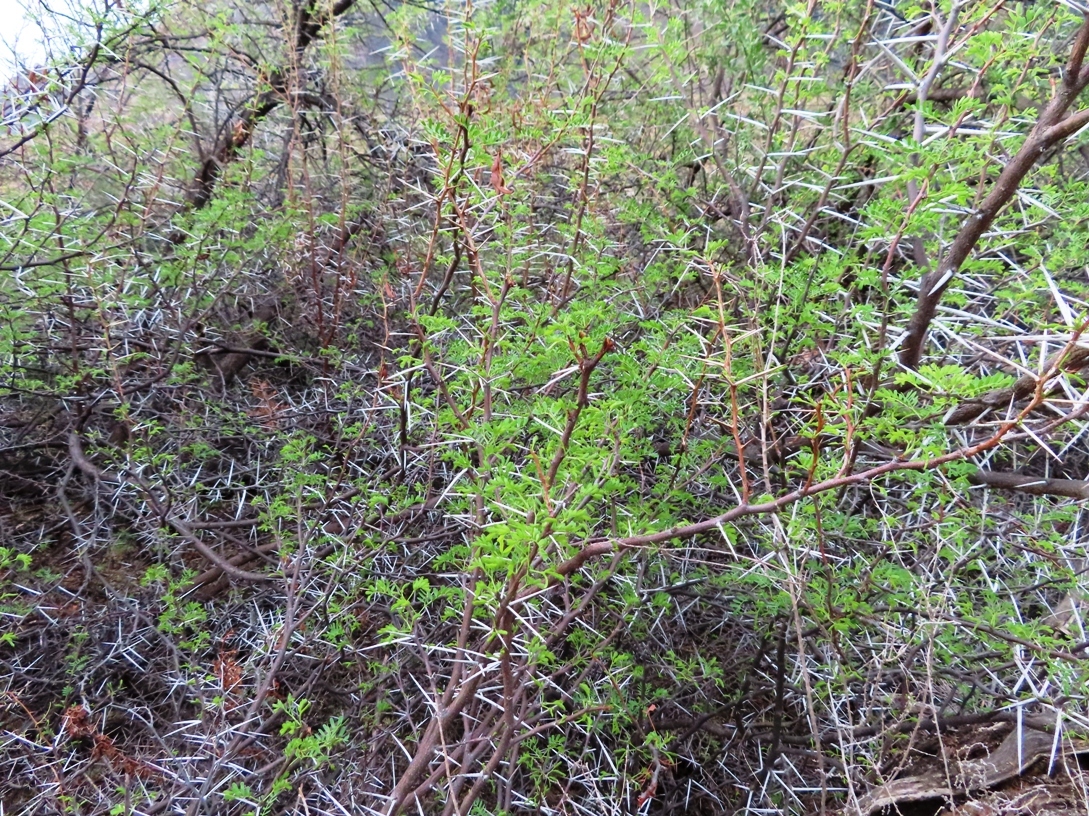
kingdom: Plantae
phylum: Tracheophyta
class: Magnoliopsida
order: Fabales
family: Fabaceae
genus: Vachellia
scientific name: Vachellia karroo
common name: Sweet thorn
